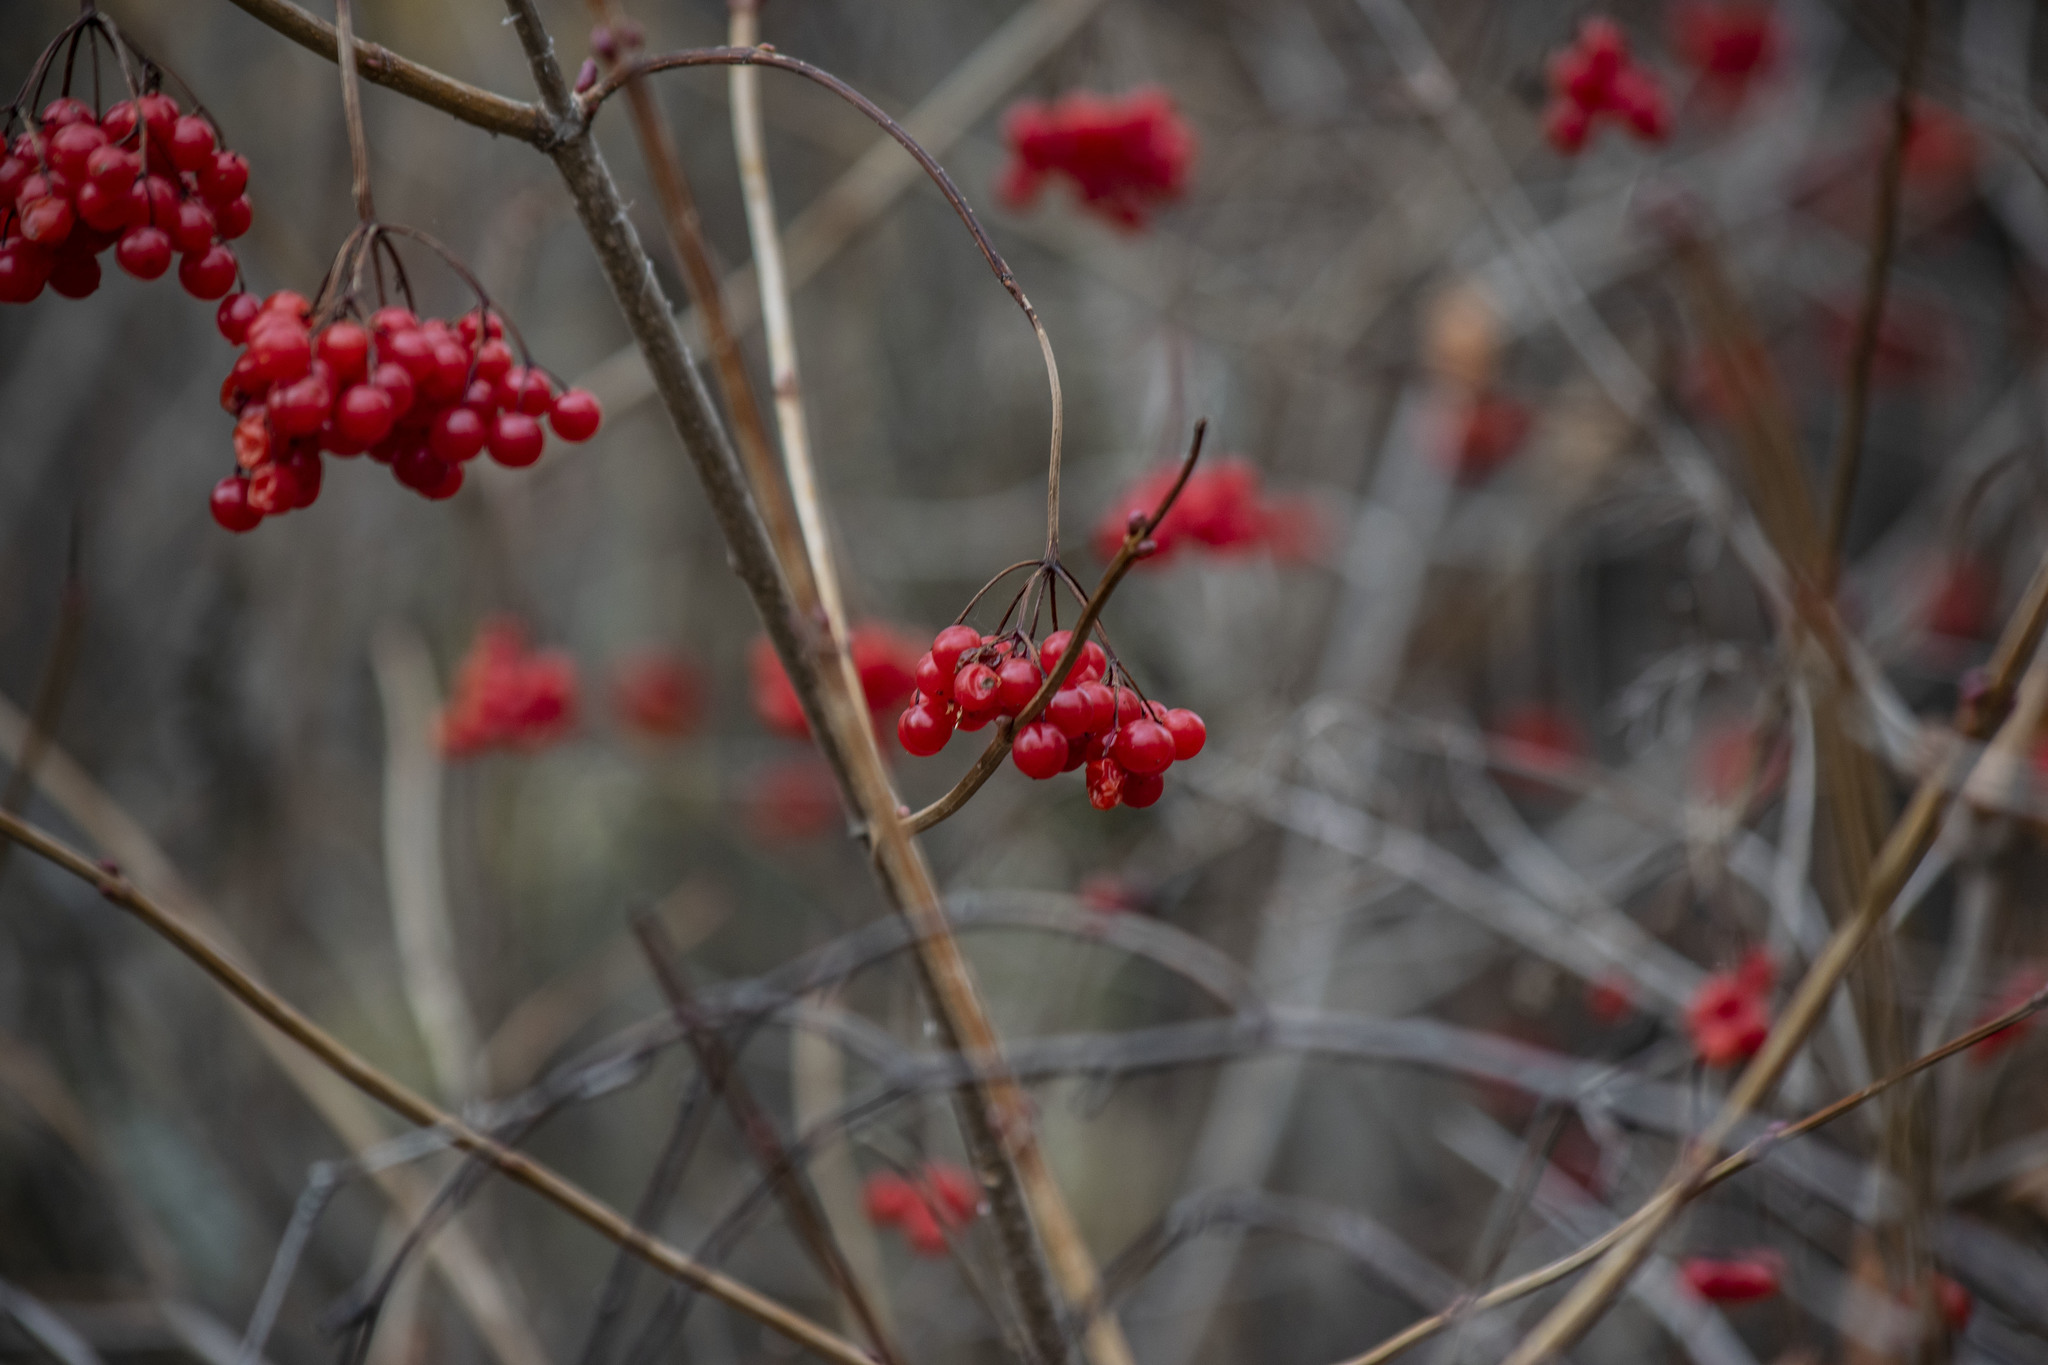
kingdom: Plantae
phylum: Tracheophyta
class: Magnoliopsida
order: Dipsacales
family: Viburnaceae
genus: Viburnum
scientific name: Viburnum opulus
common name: Guelder-rose
